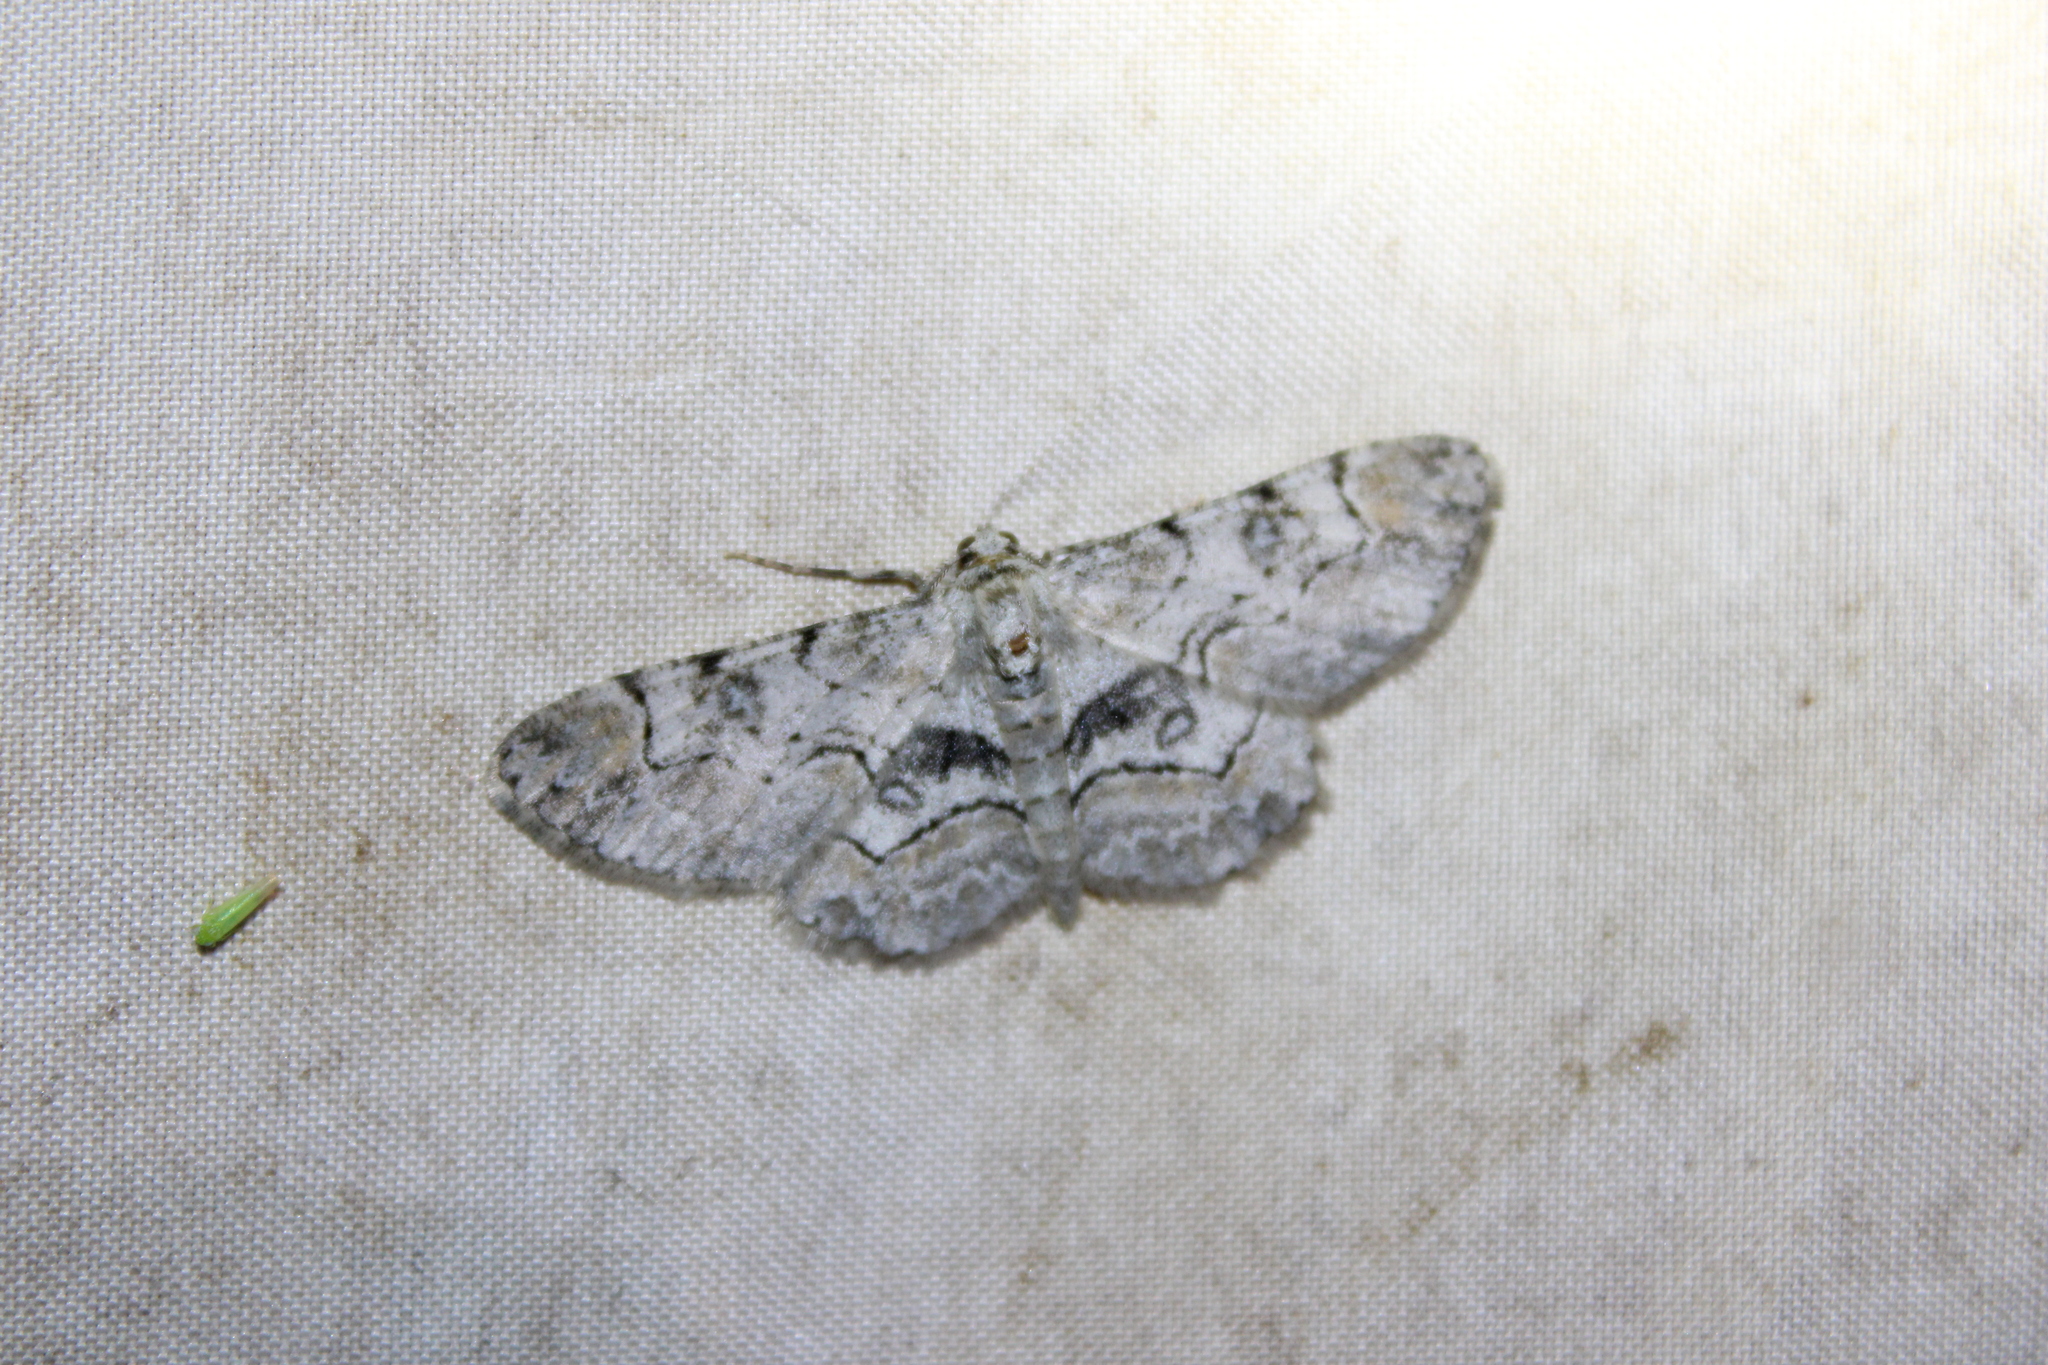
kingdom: Animalia
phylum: Arthropoda
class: Insecta
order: Lepidoptera
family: Geometridae
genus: Iridopsis
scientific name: Iridopsis larvaria
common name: Bent-line gray
